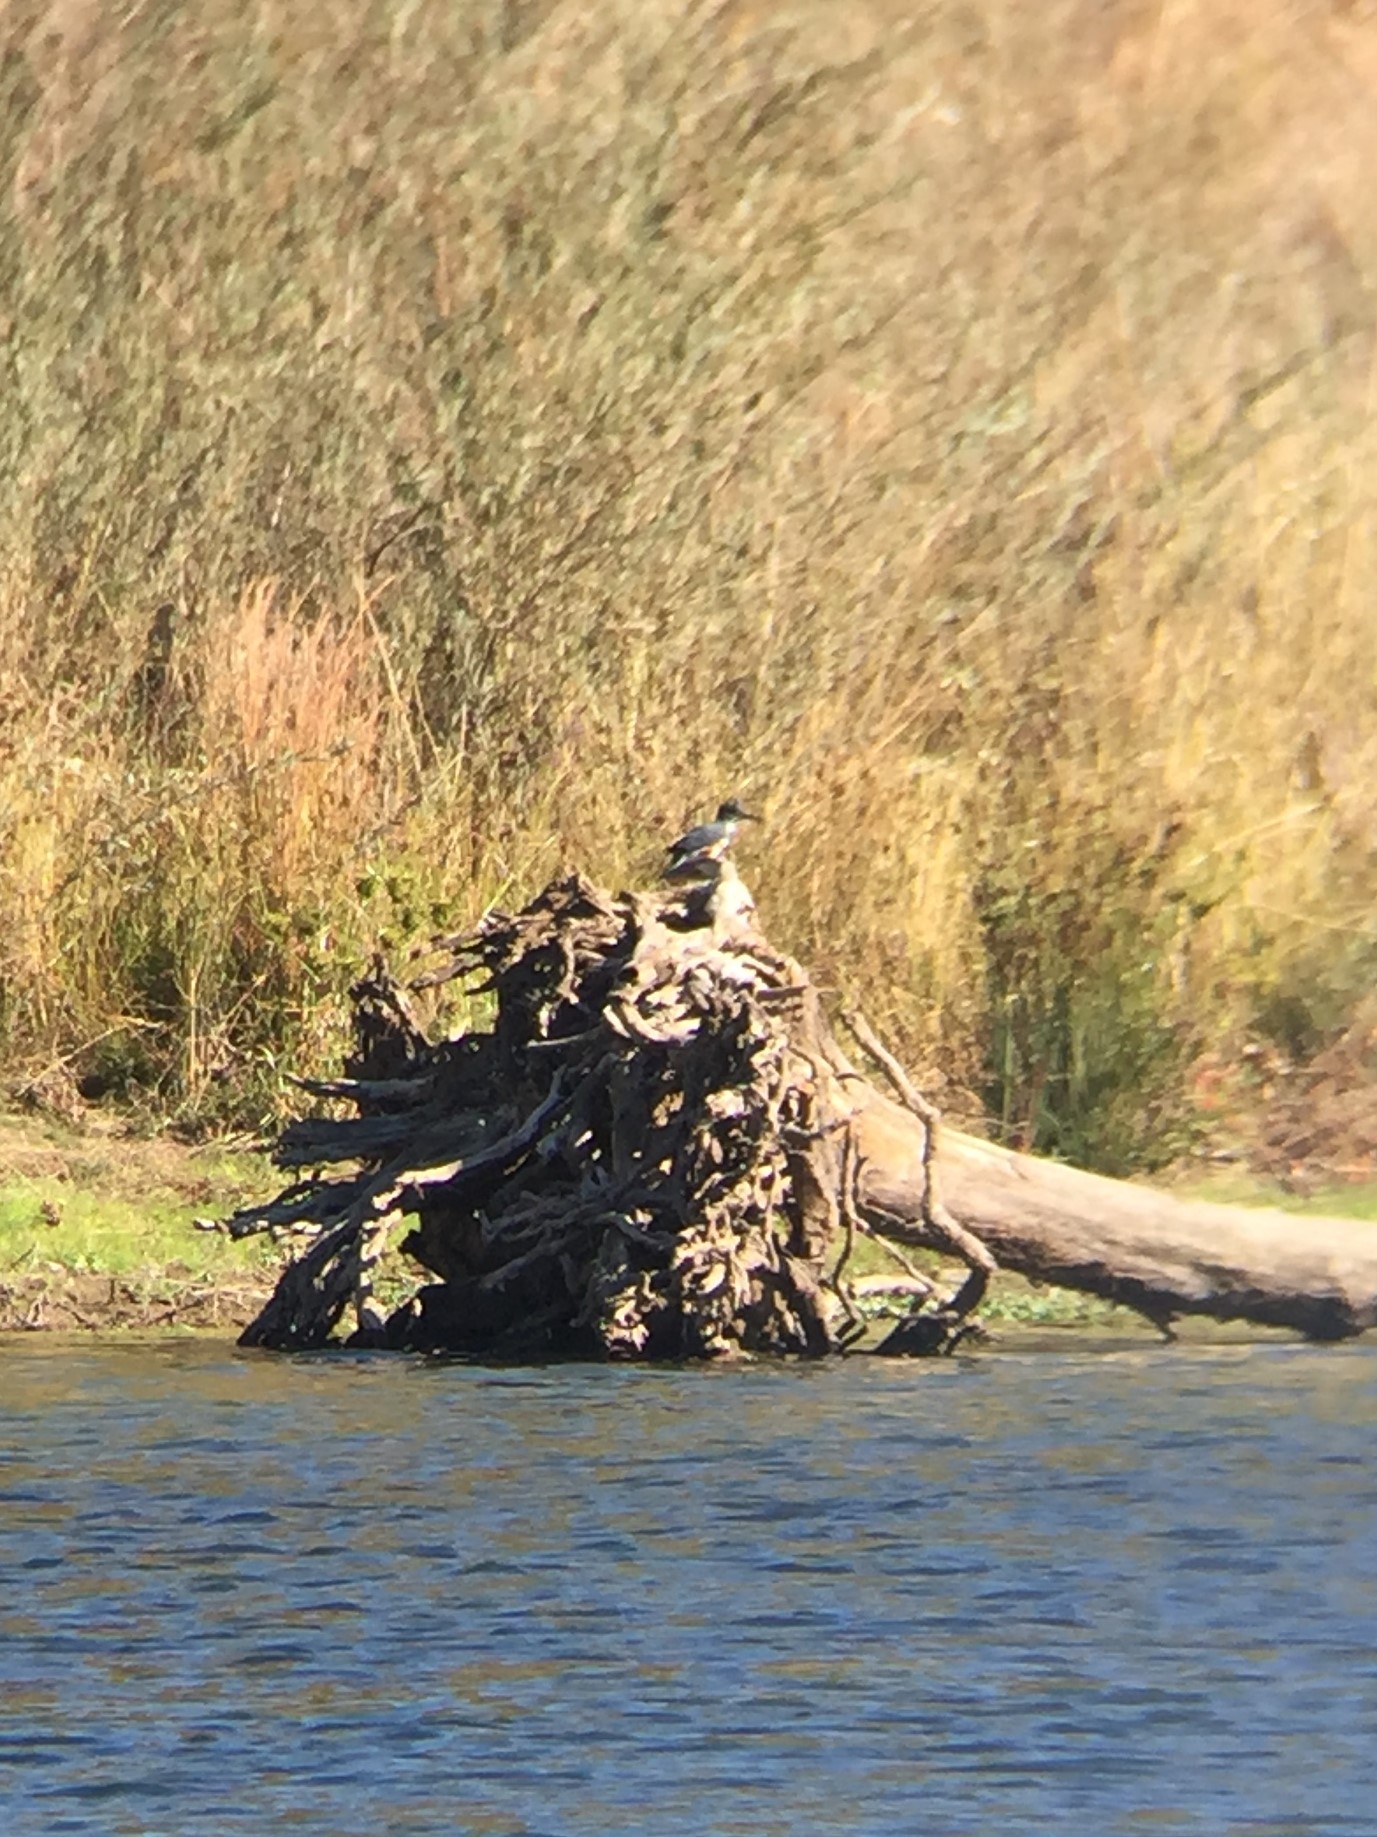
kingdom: Animalia
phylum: Chordata
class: Aves
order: Coraciiformes
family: Alcedinidae
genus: Megaceryle
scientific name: Megaceryle alcyon
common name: Belted kingfisher
